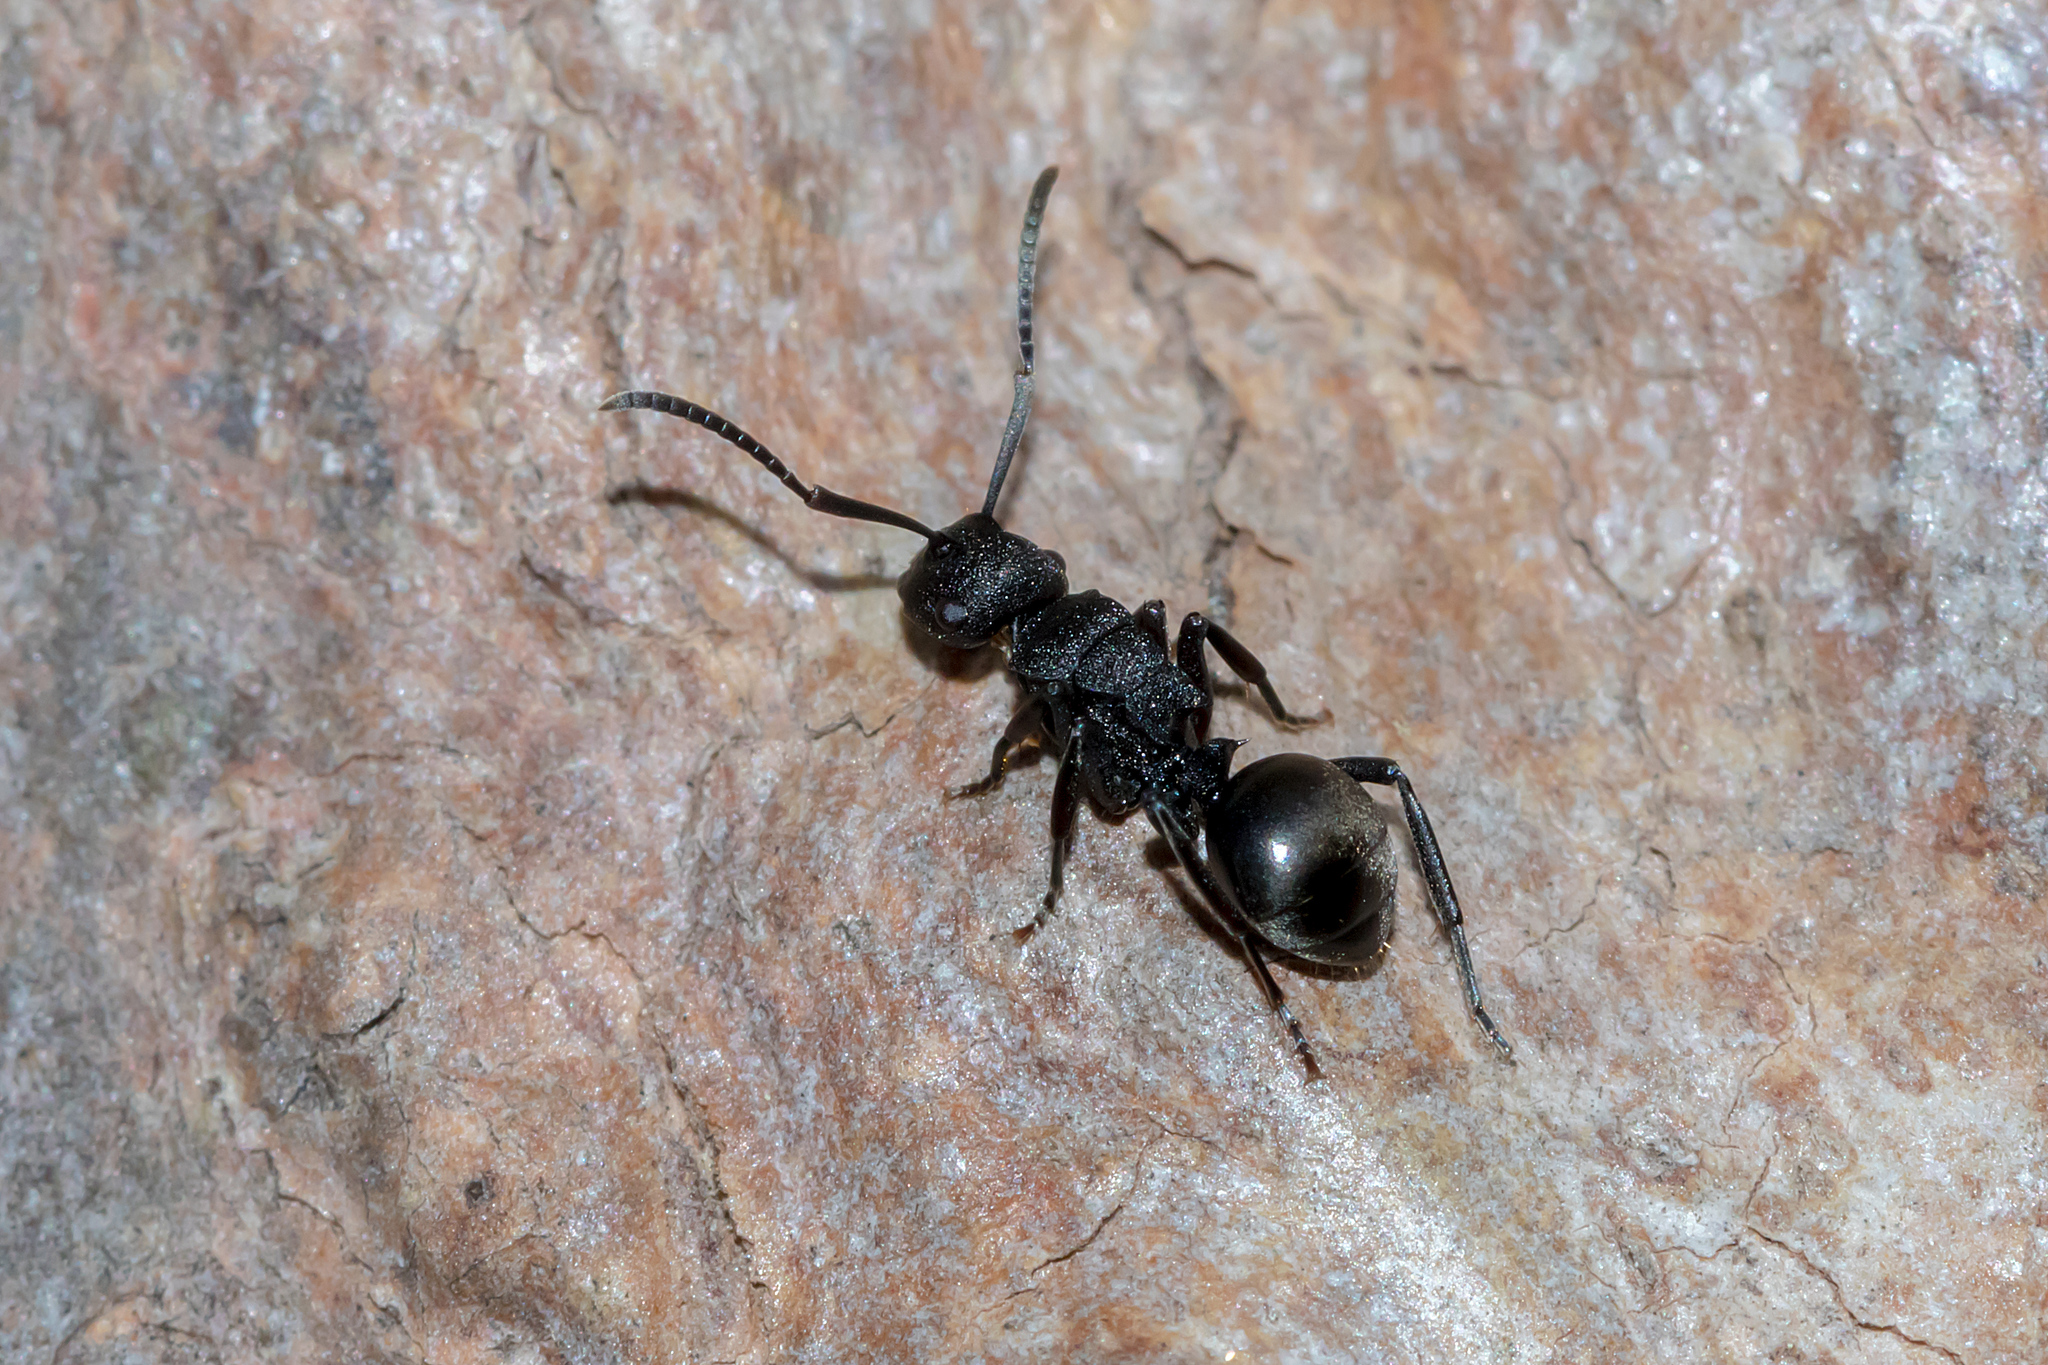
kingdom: Animalia
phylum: Arthropoda
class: Insecta
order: Hymenoptera
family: Formicidae
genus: Polyrhachis
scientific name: Polyrhachis phryne
